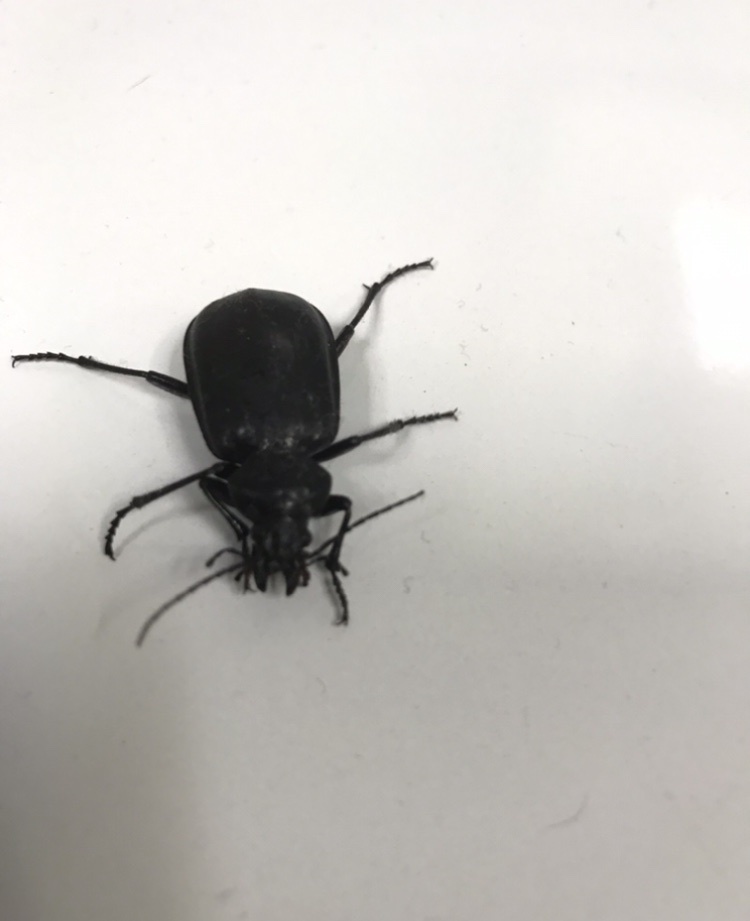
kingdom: Animalia
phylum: Arthropoda
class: Insecta
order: Coleoptera
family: Carabidae
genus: Calosoma
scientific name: Calosoma
